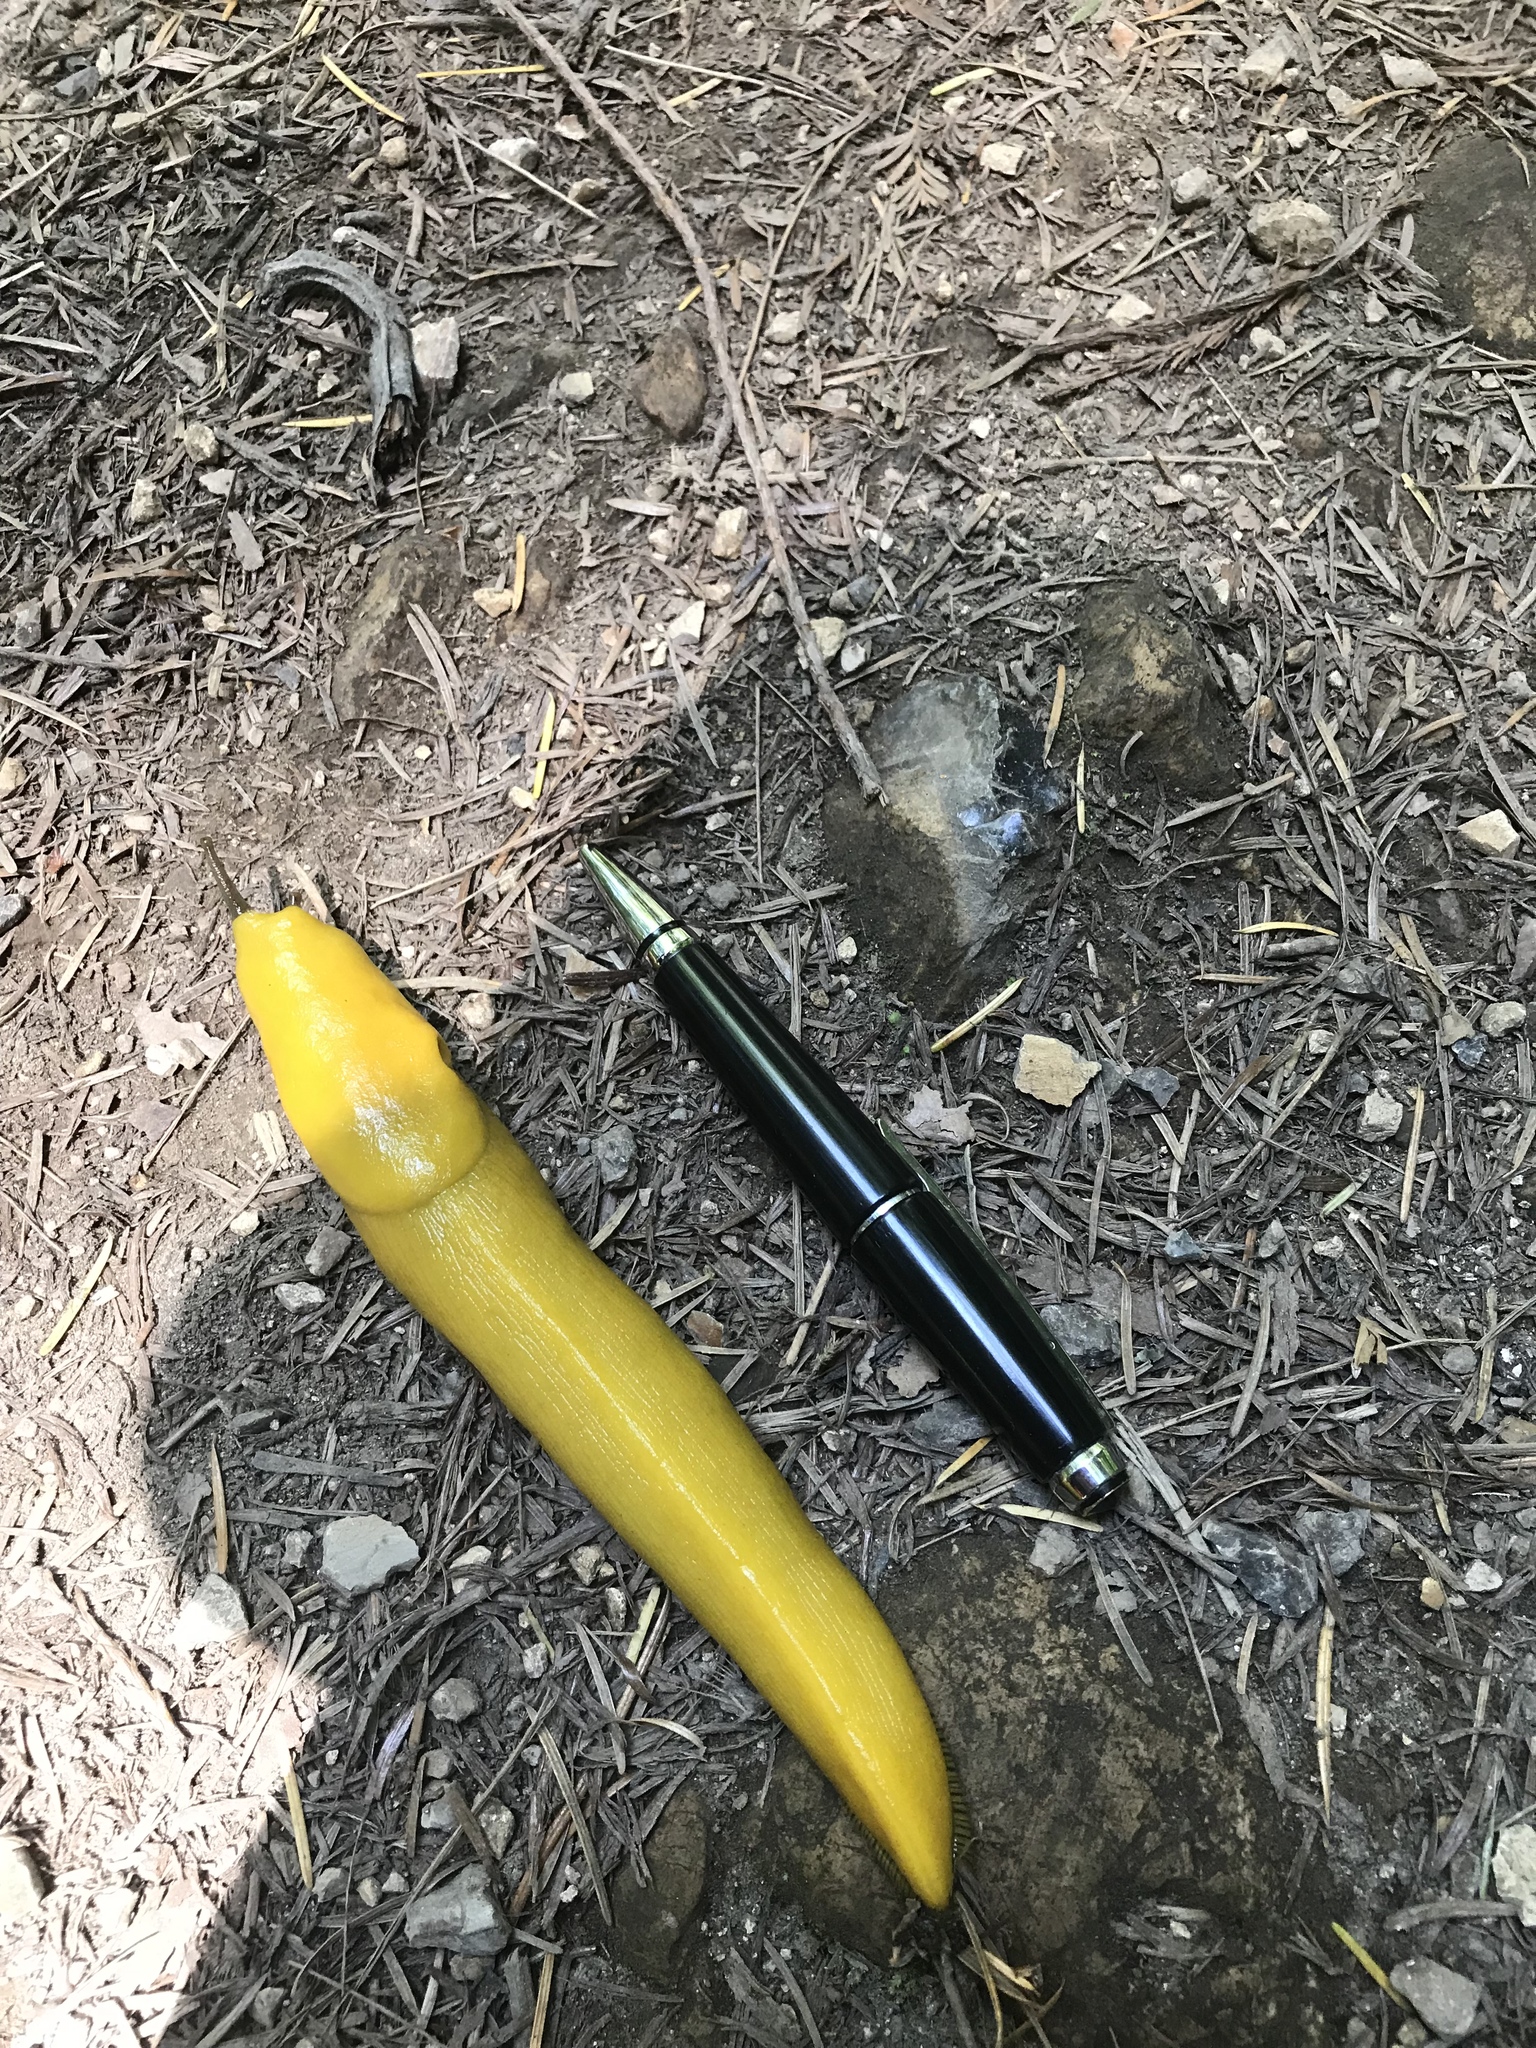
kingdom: Animalia
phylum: Mollusca
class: Gastropoda
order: Stylommatophora
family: Ariolimacidae
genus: Ariolimax
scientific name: Ariolimax californicus
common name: California banana slug
